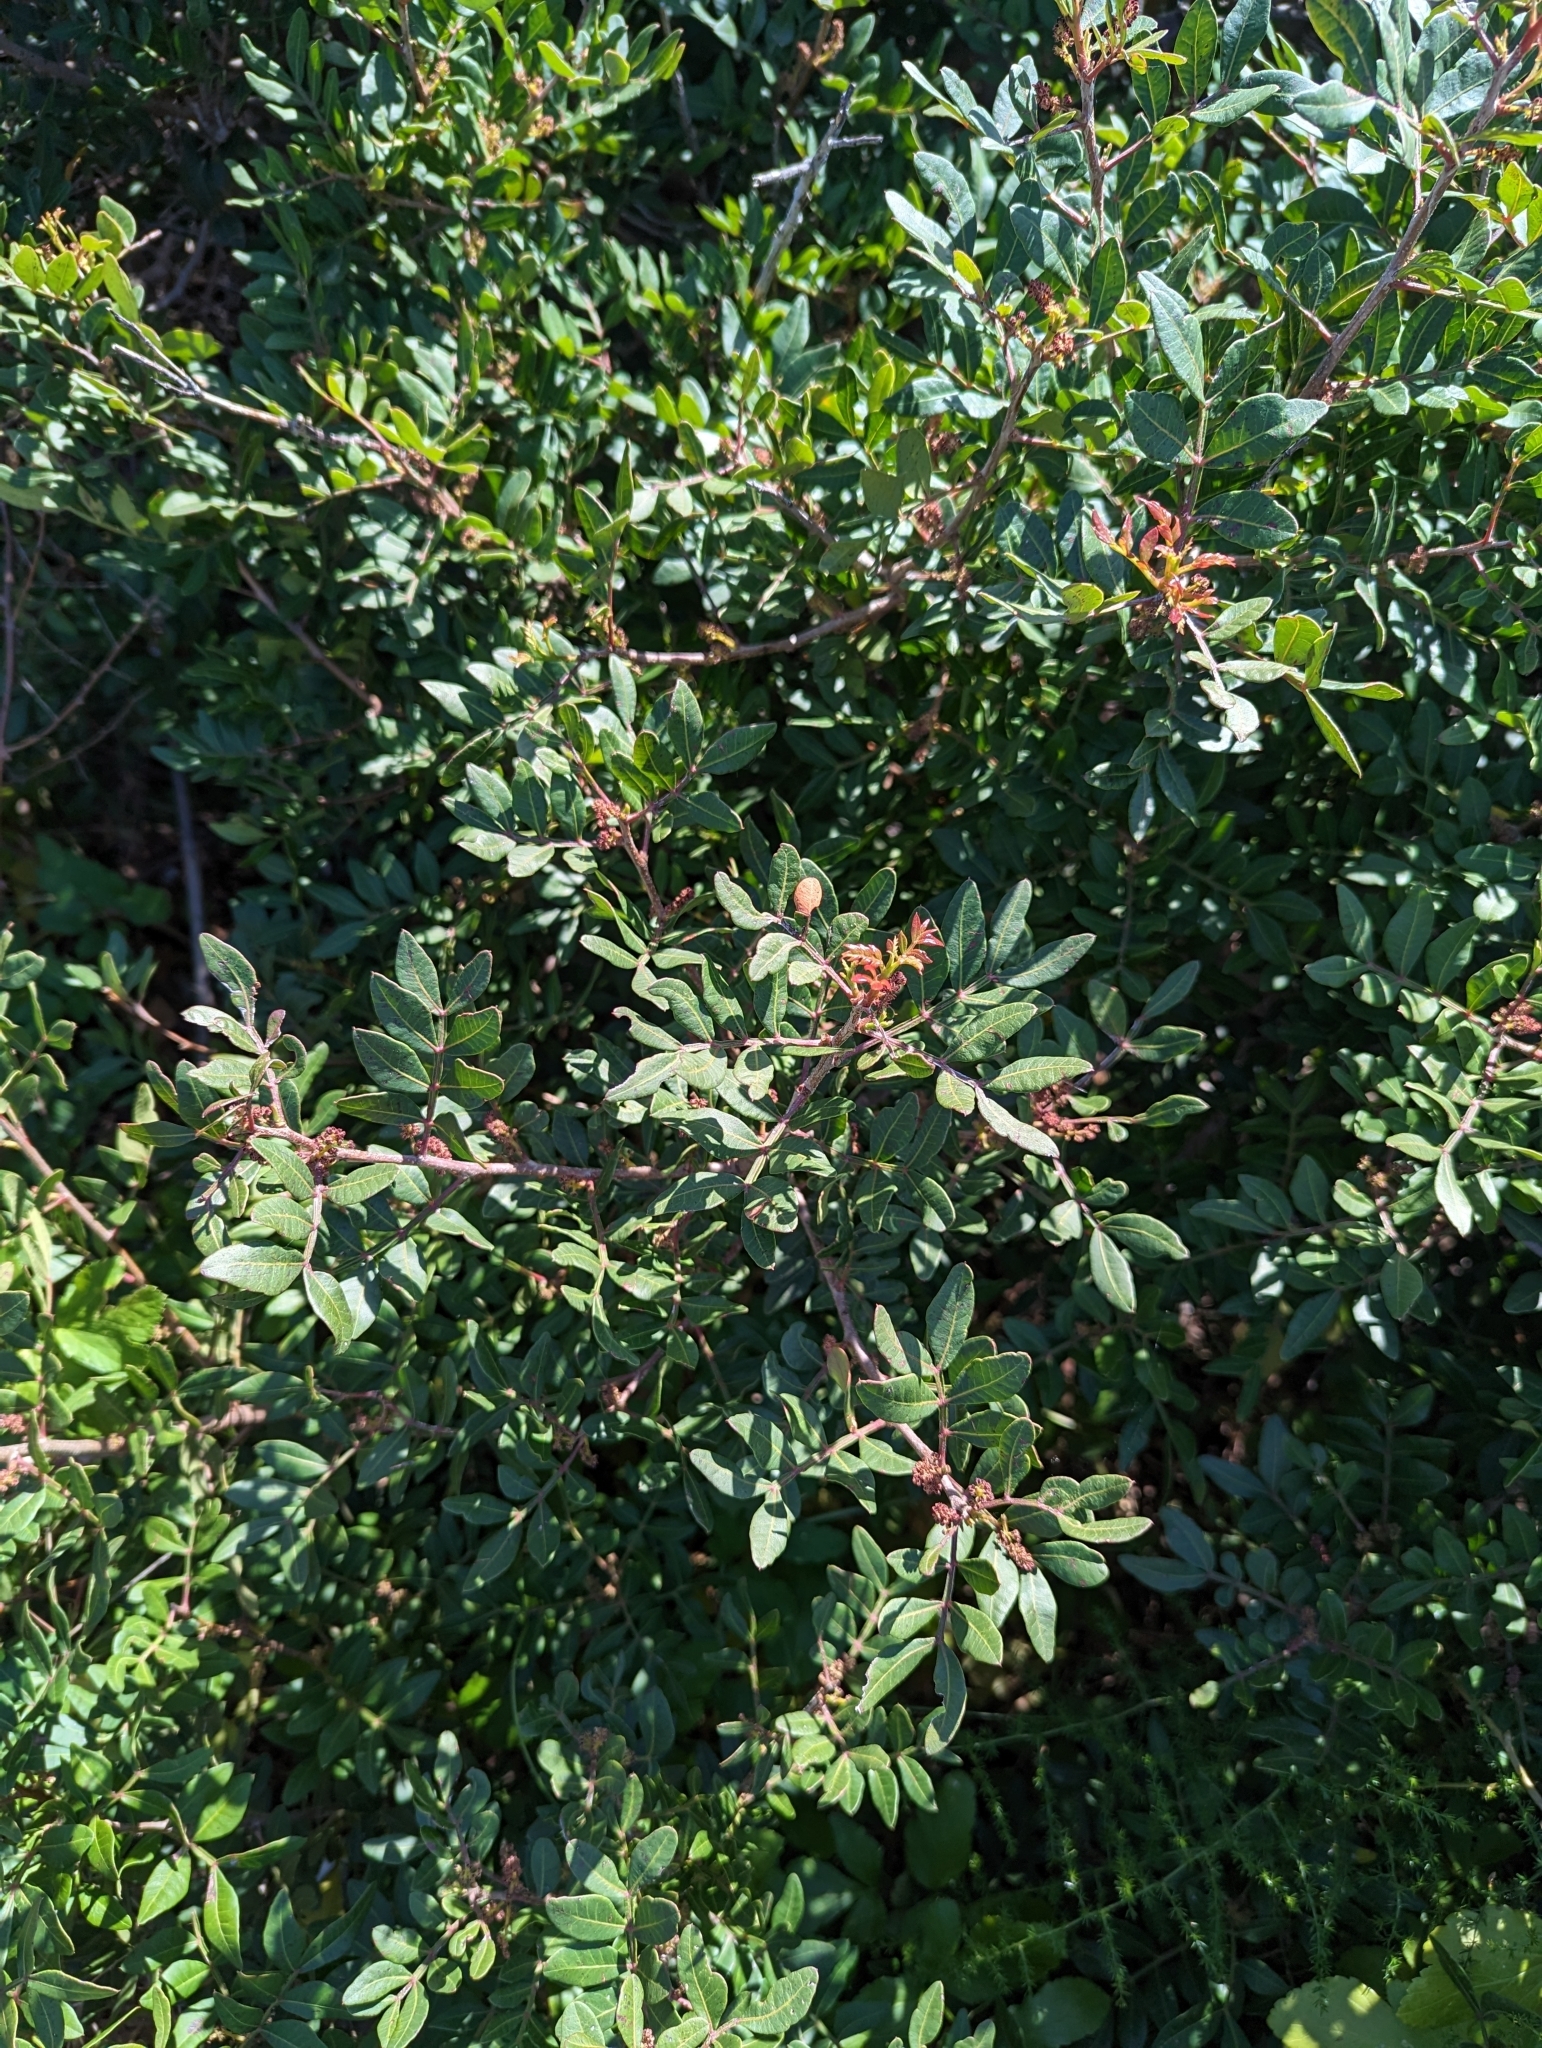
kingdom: Plantae
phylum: Tracheophyta
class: Magnoliopsida
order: Sapindales
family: Anacardiaceae
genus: Pistacia
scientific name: Pistacia lentiscus
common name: Lentisk
